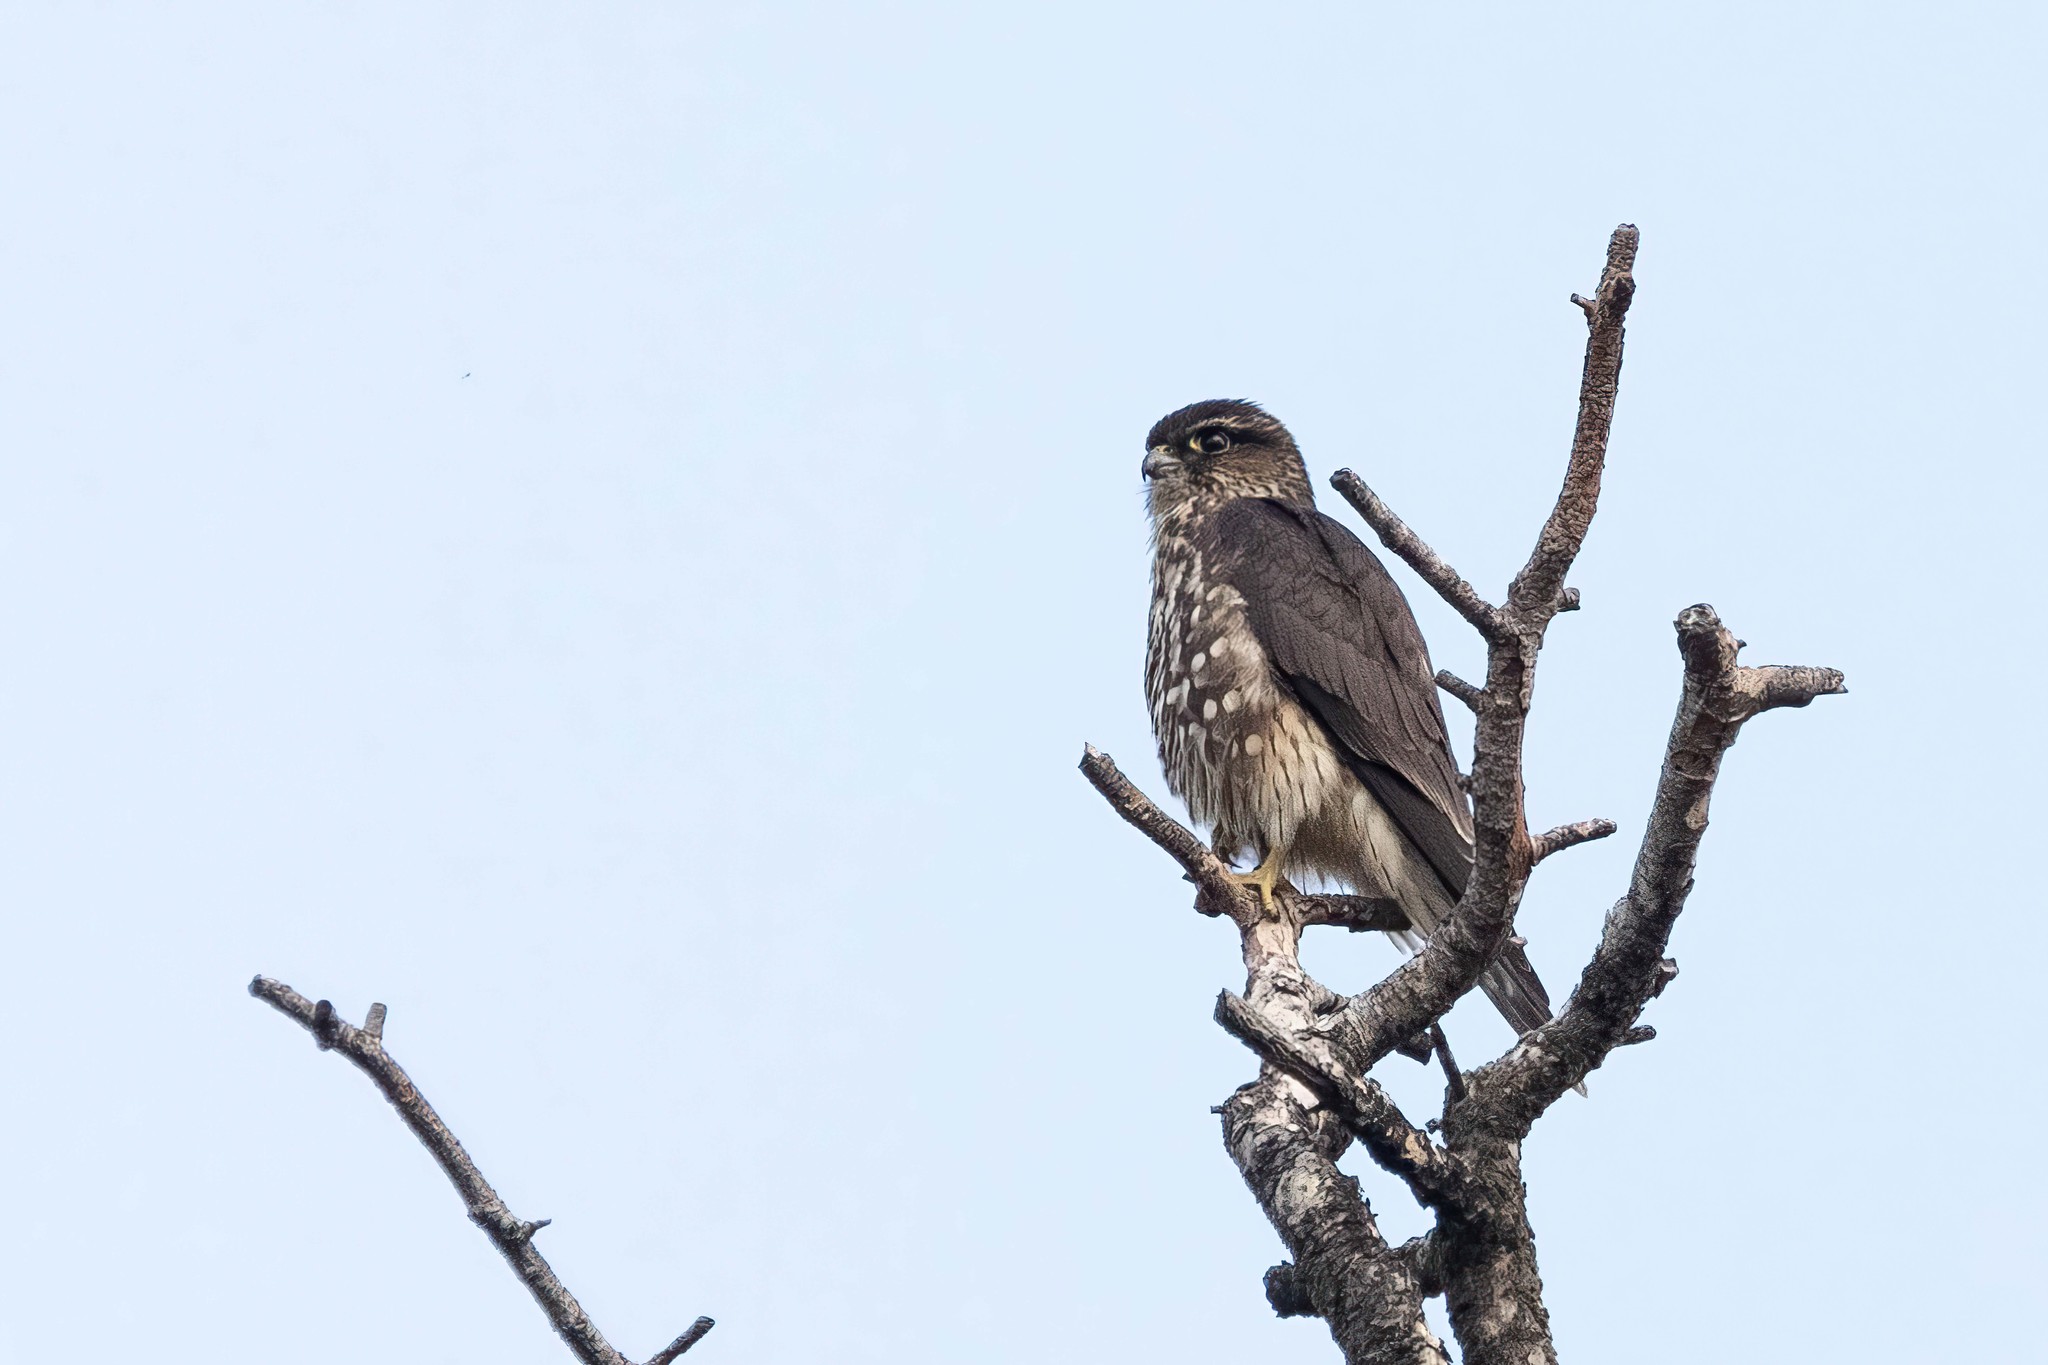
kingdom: Animalia
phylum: Chordata
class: Aves
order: Falconiformes
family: Falconidae
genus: Falco
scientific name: Falco columbarius
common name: Merlin
